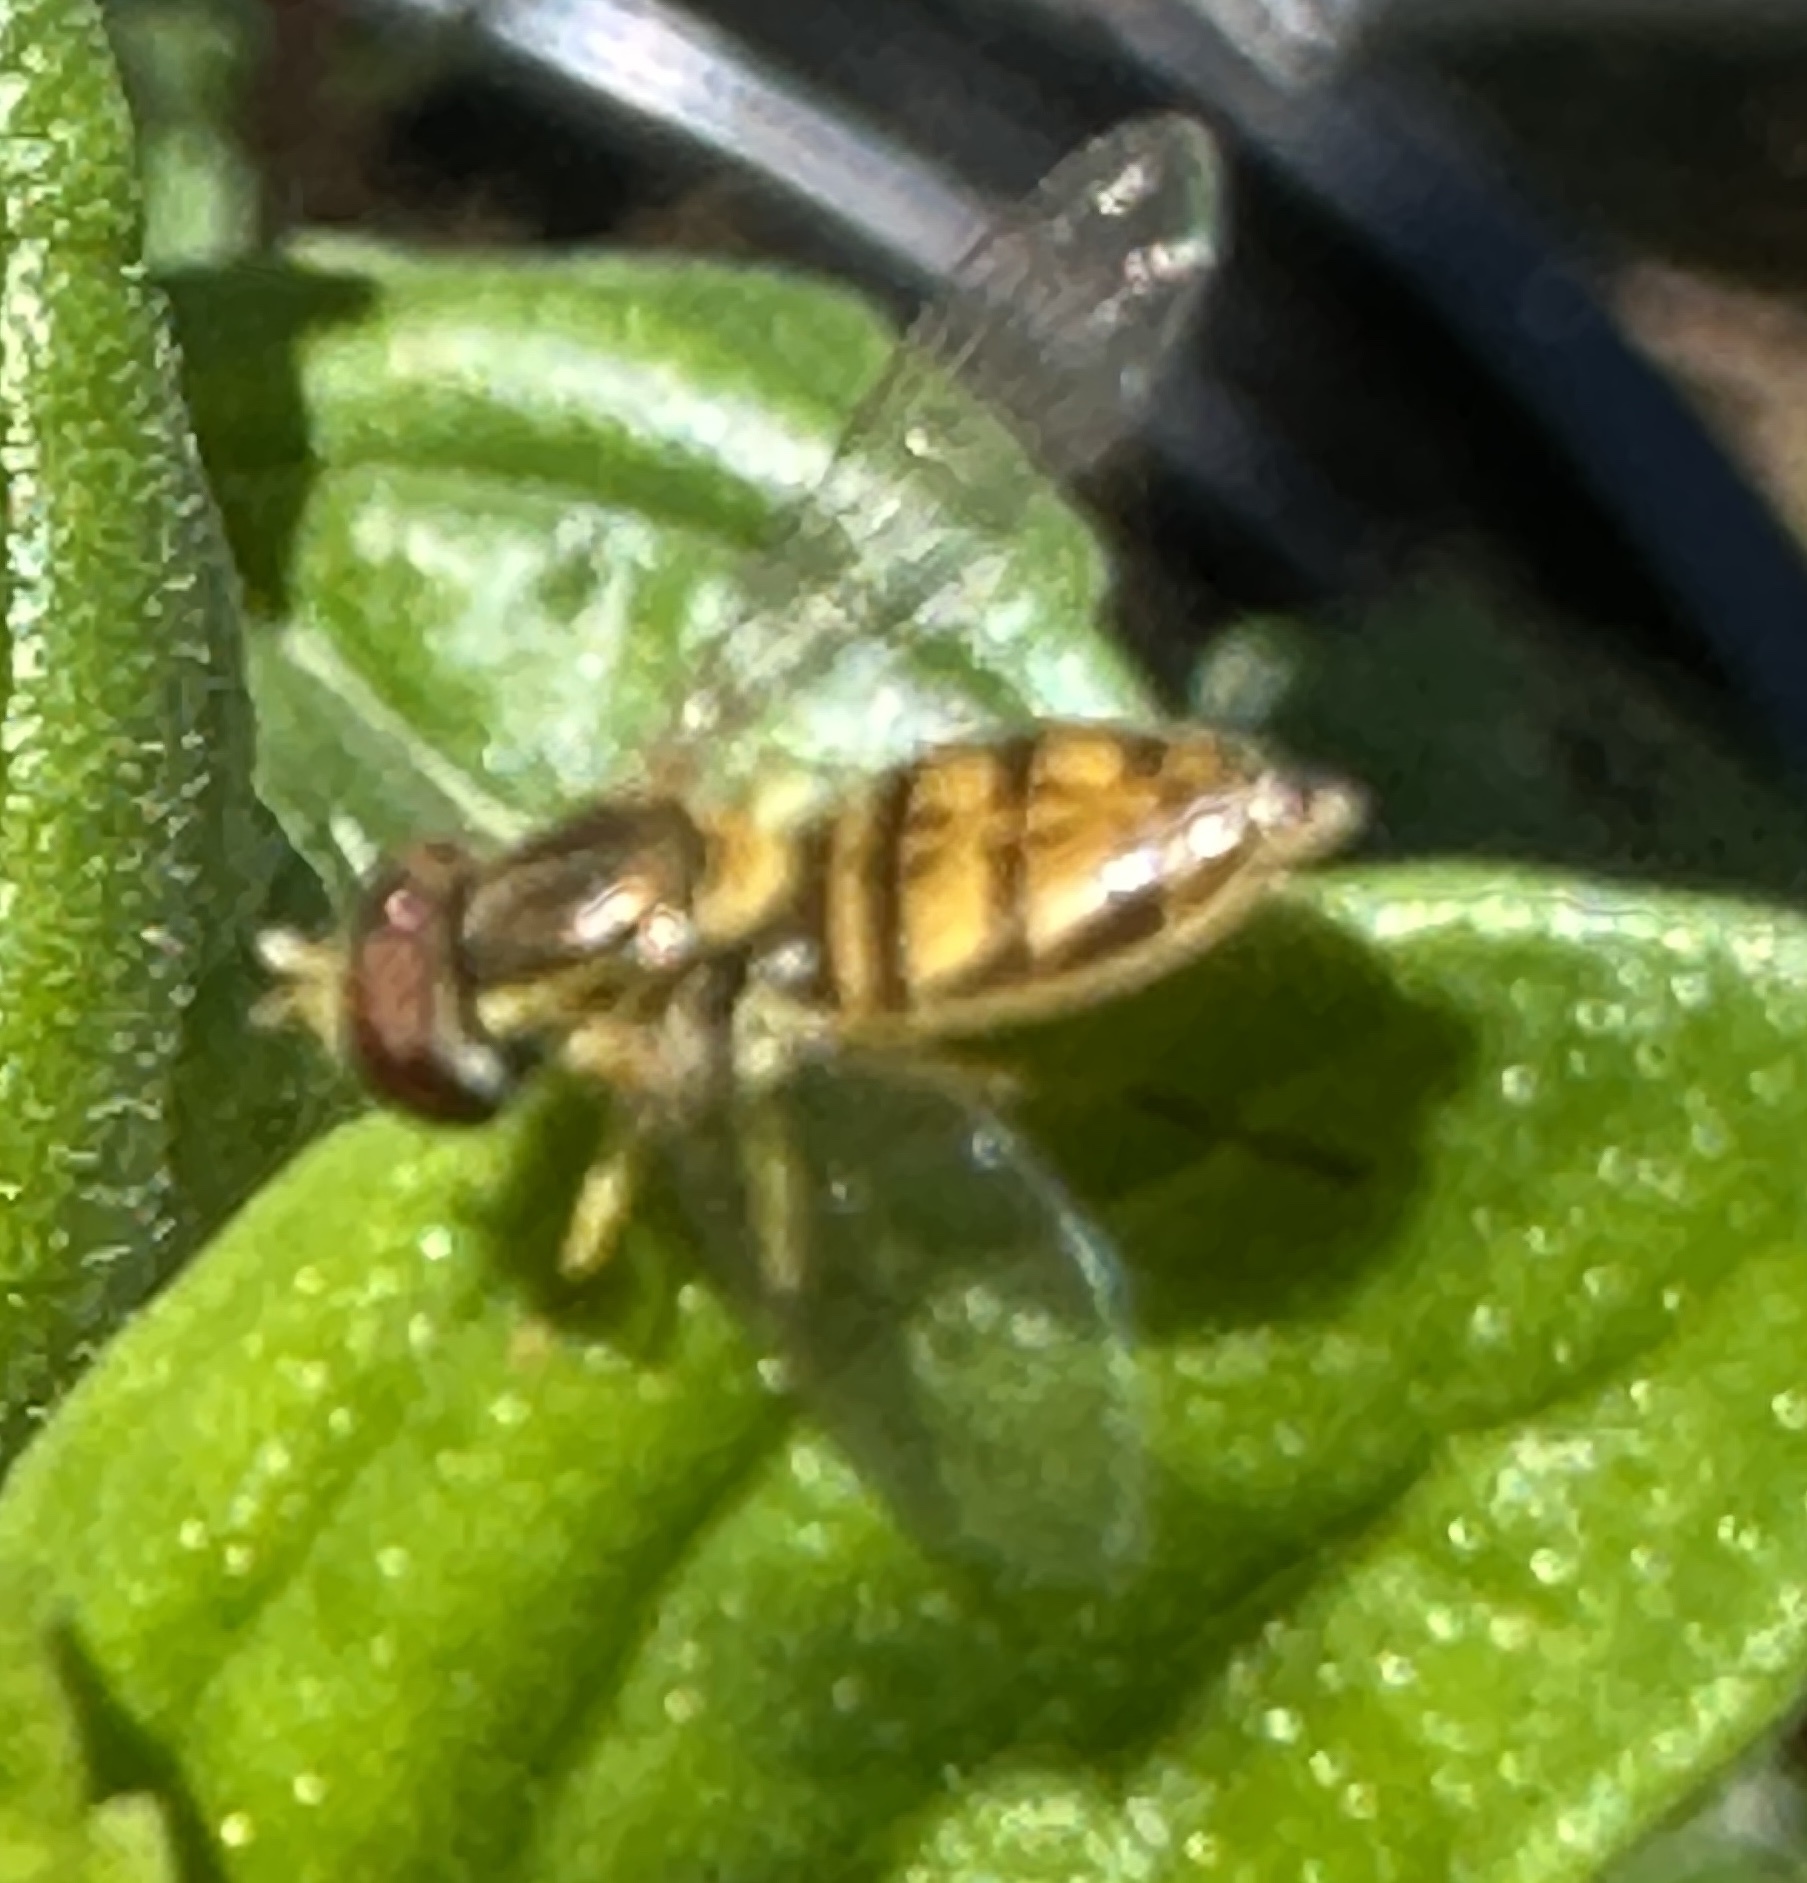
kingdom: Animalia
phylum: Arthropoda
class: Insecta
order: Diptera
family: Syrphidae
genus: Toxomerus
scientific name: Toxomerus marginatus
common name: Syrphid fly
